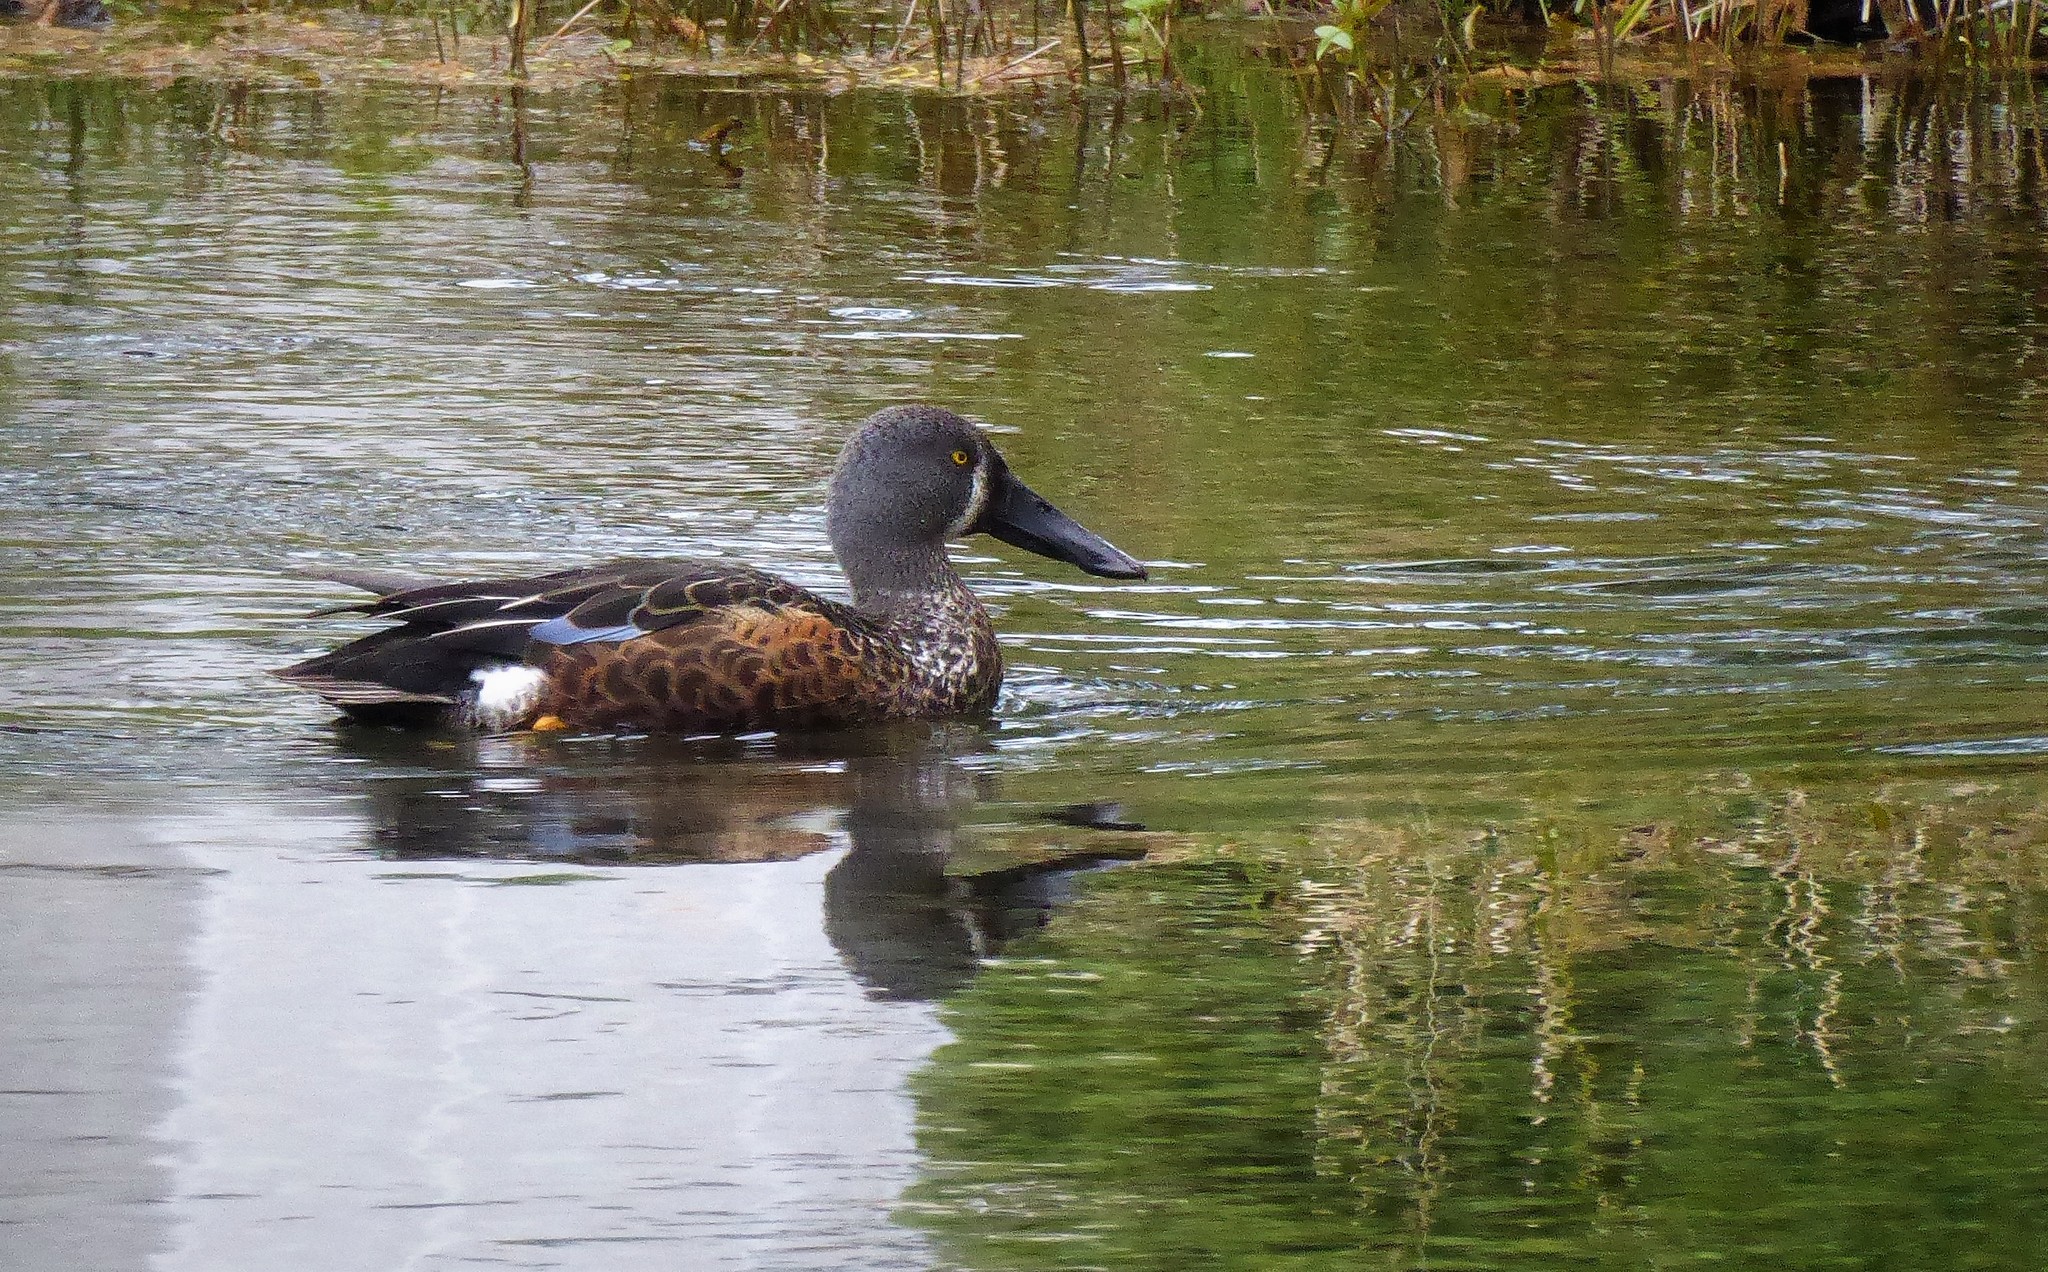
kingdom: Animalia
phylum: Chordata
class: Aves
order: Anseriformes
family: Anatidae
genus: Spatula
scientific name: Spatula rhynchotis
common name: Australian shoveler
